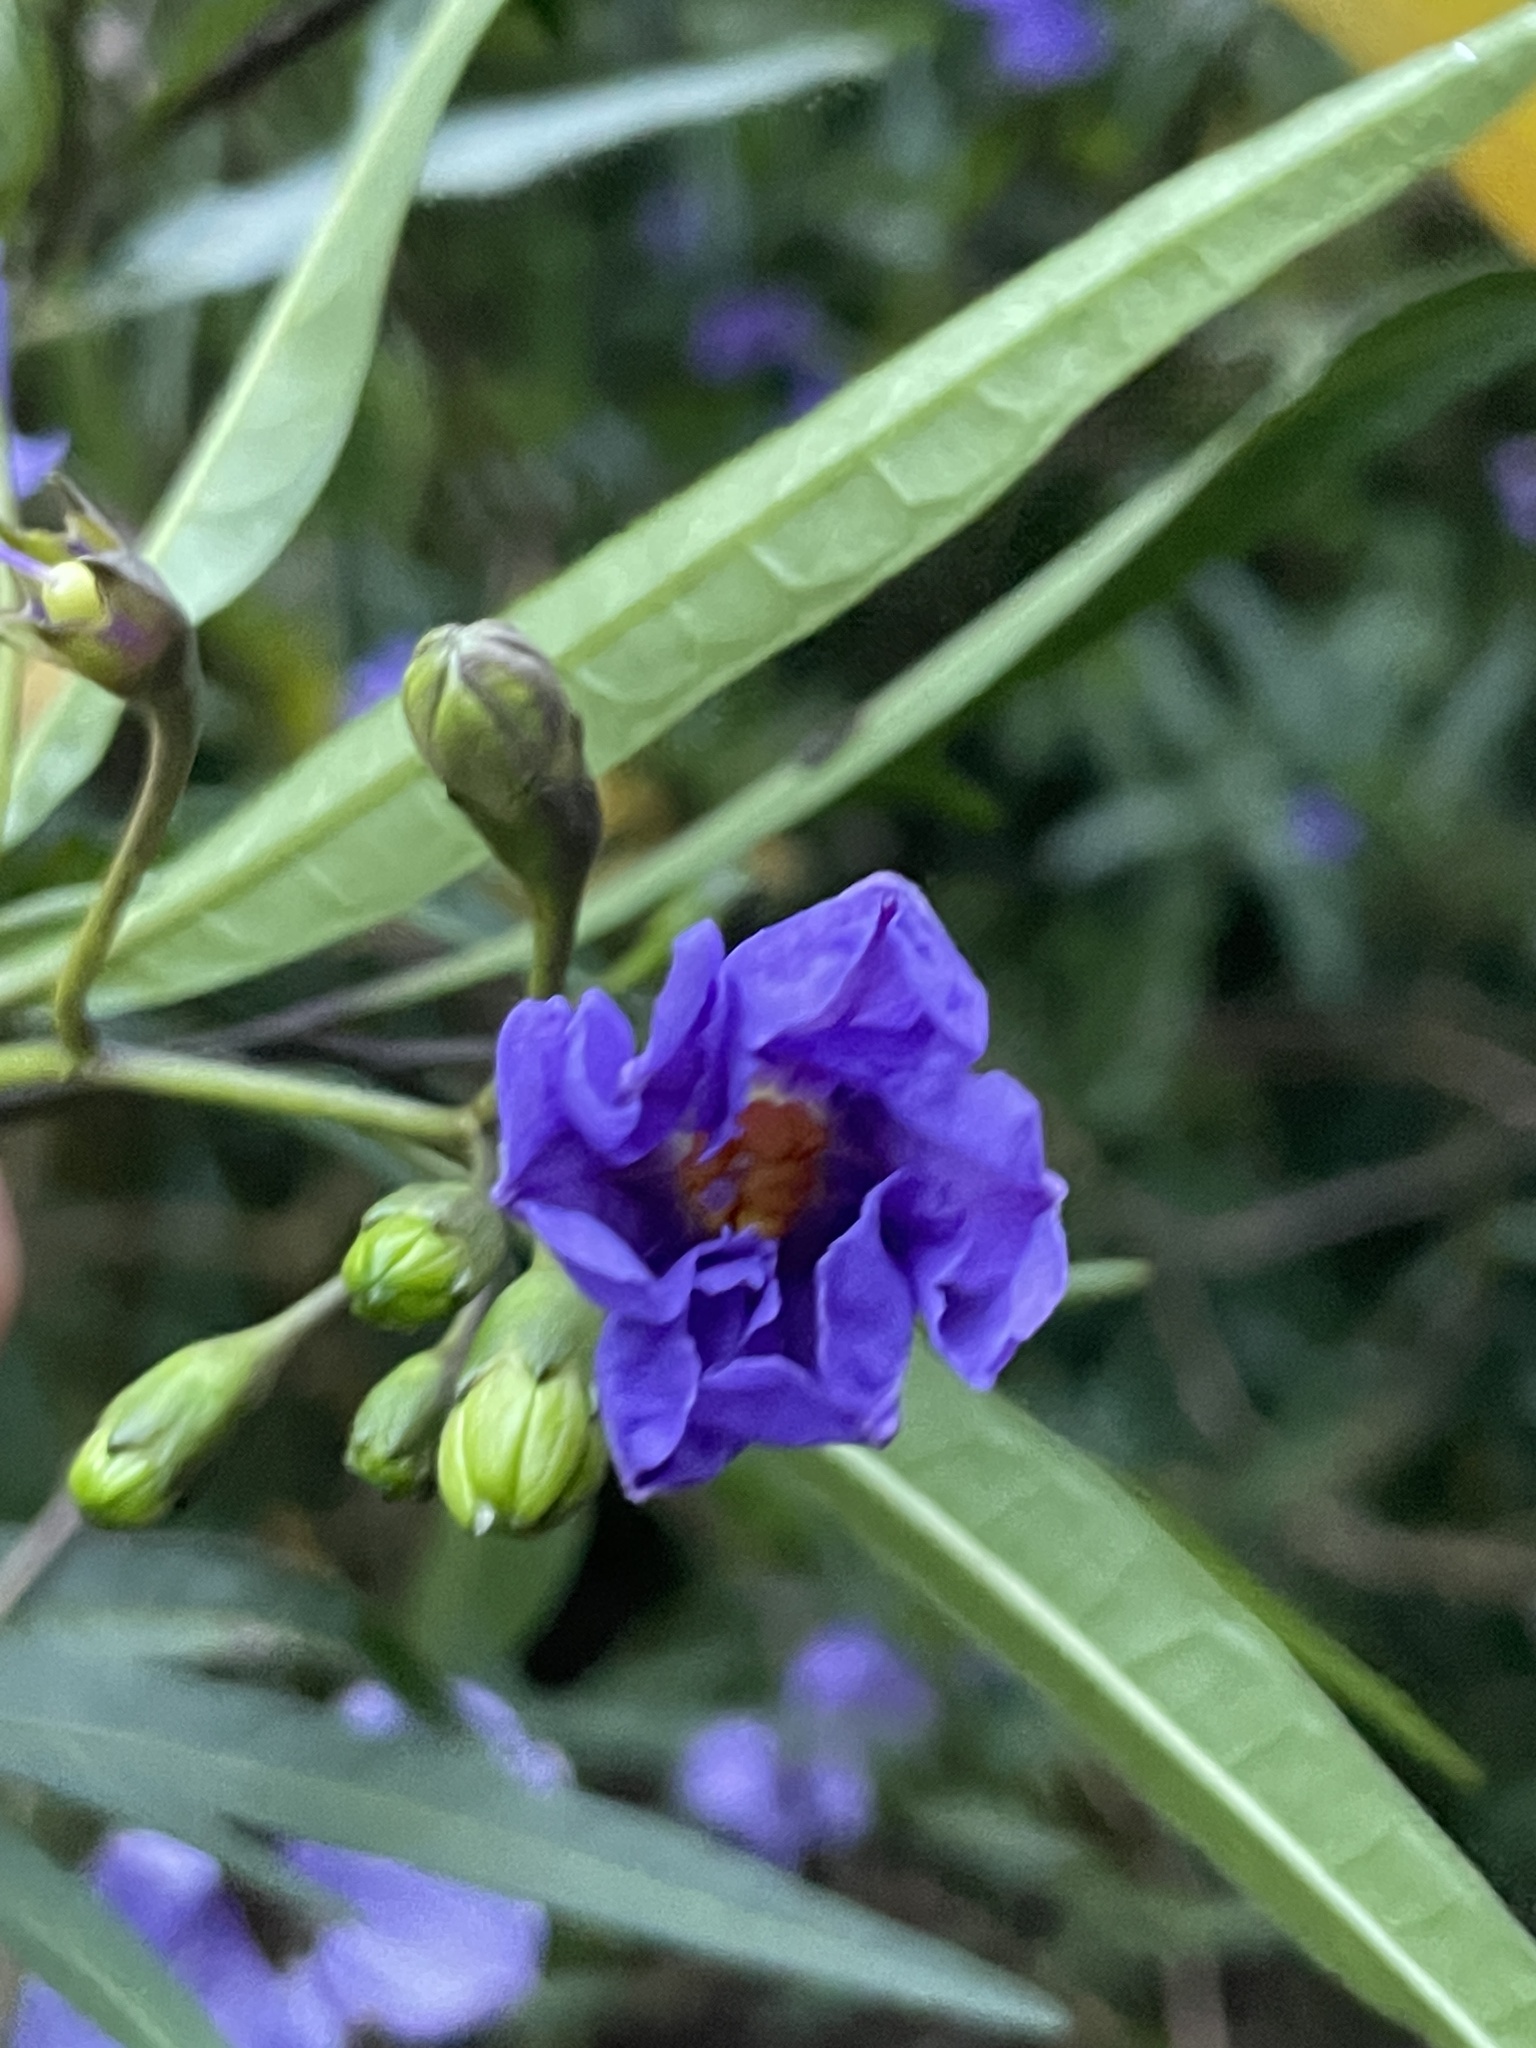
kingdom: Plantae
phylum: Tracheophyta
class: Magnoliopsida
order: Solanales
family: Solanaceae
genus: Solanum
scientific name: Solanum laciniatum
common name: Kangaroo-apple
